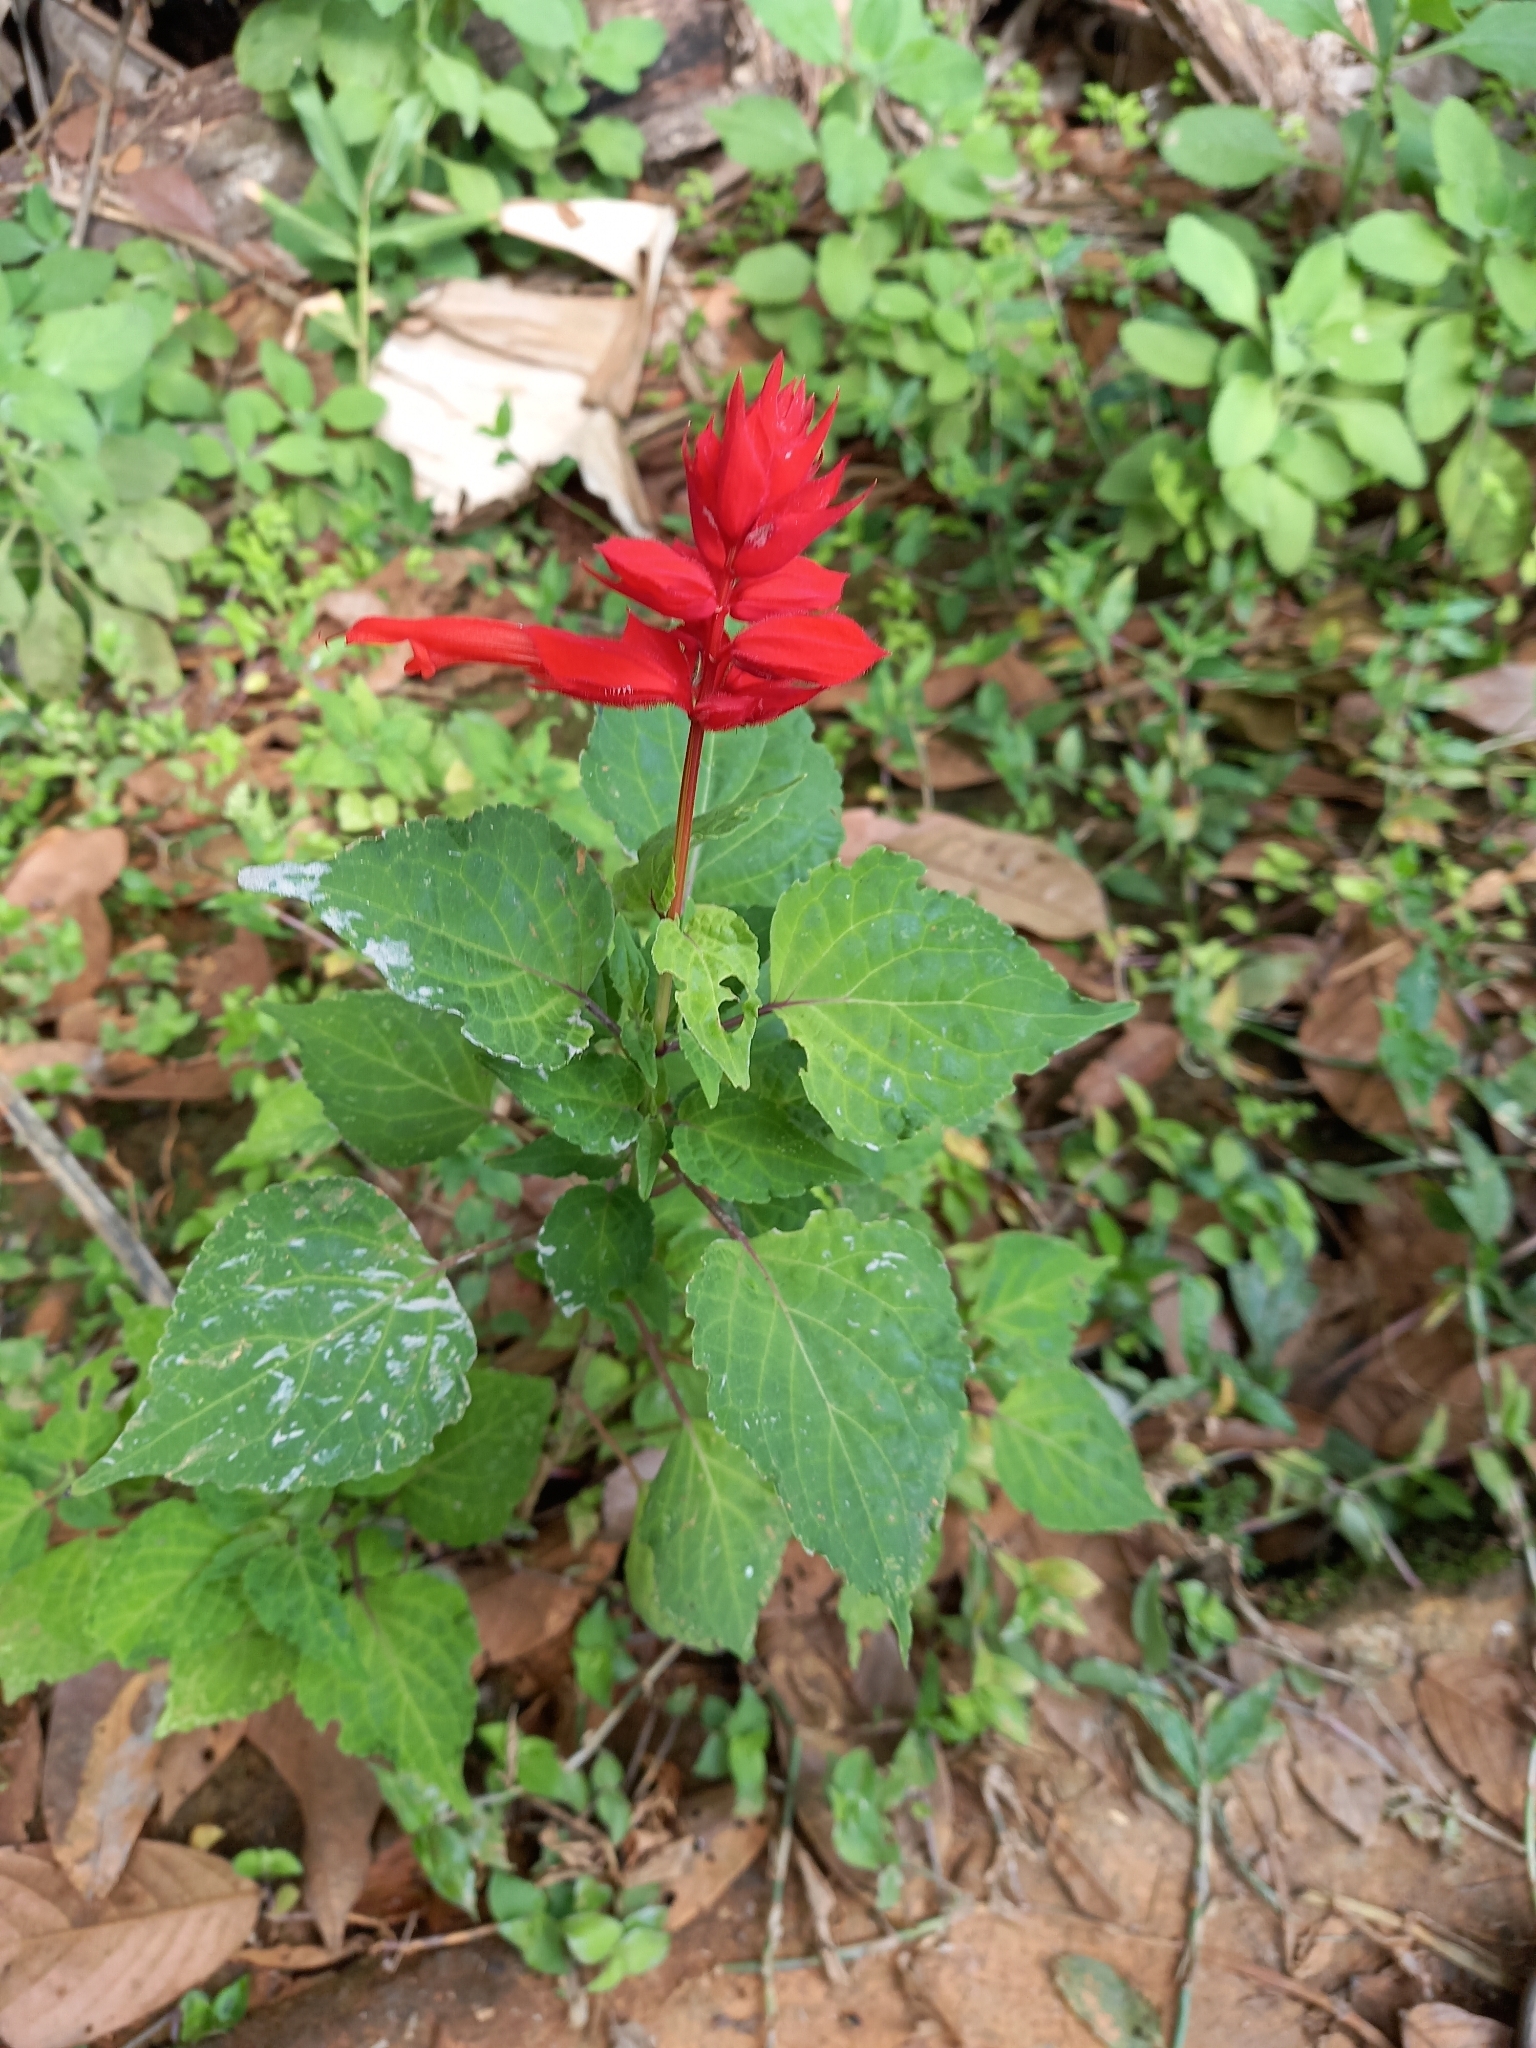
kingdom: Plantae
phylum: Tracheophyta
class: Magnoliopsida
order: Lamiales
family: Lamiaceae
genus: Salvia
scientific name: Salvia splendens
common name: Scarlet sage
